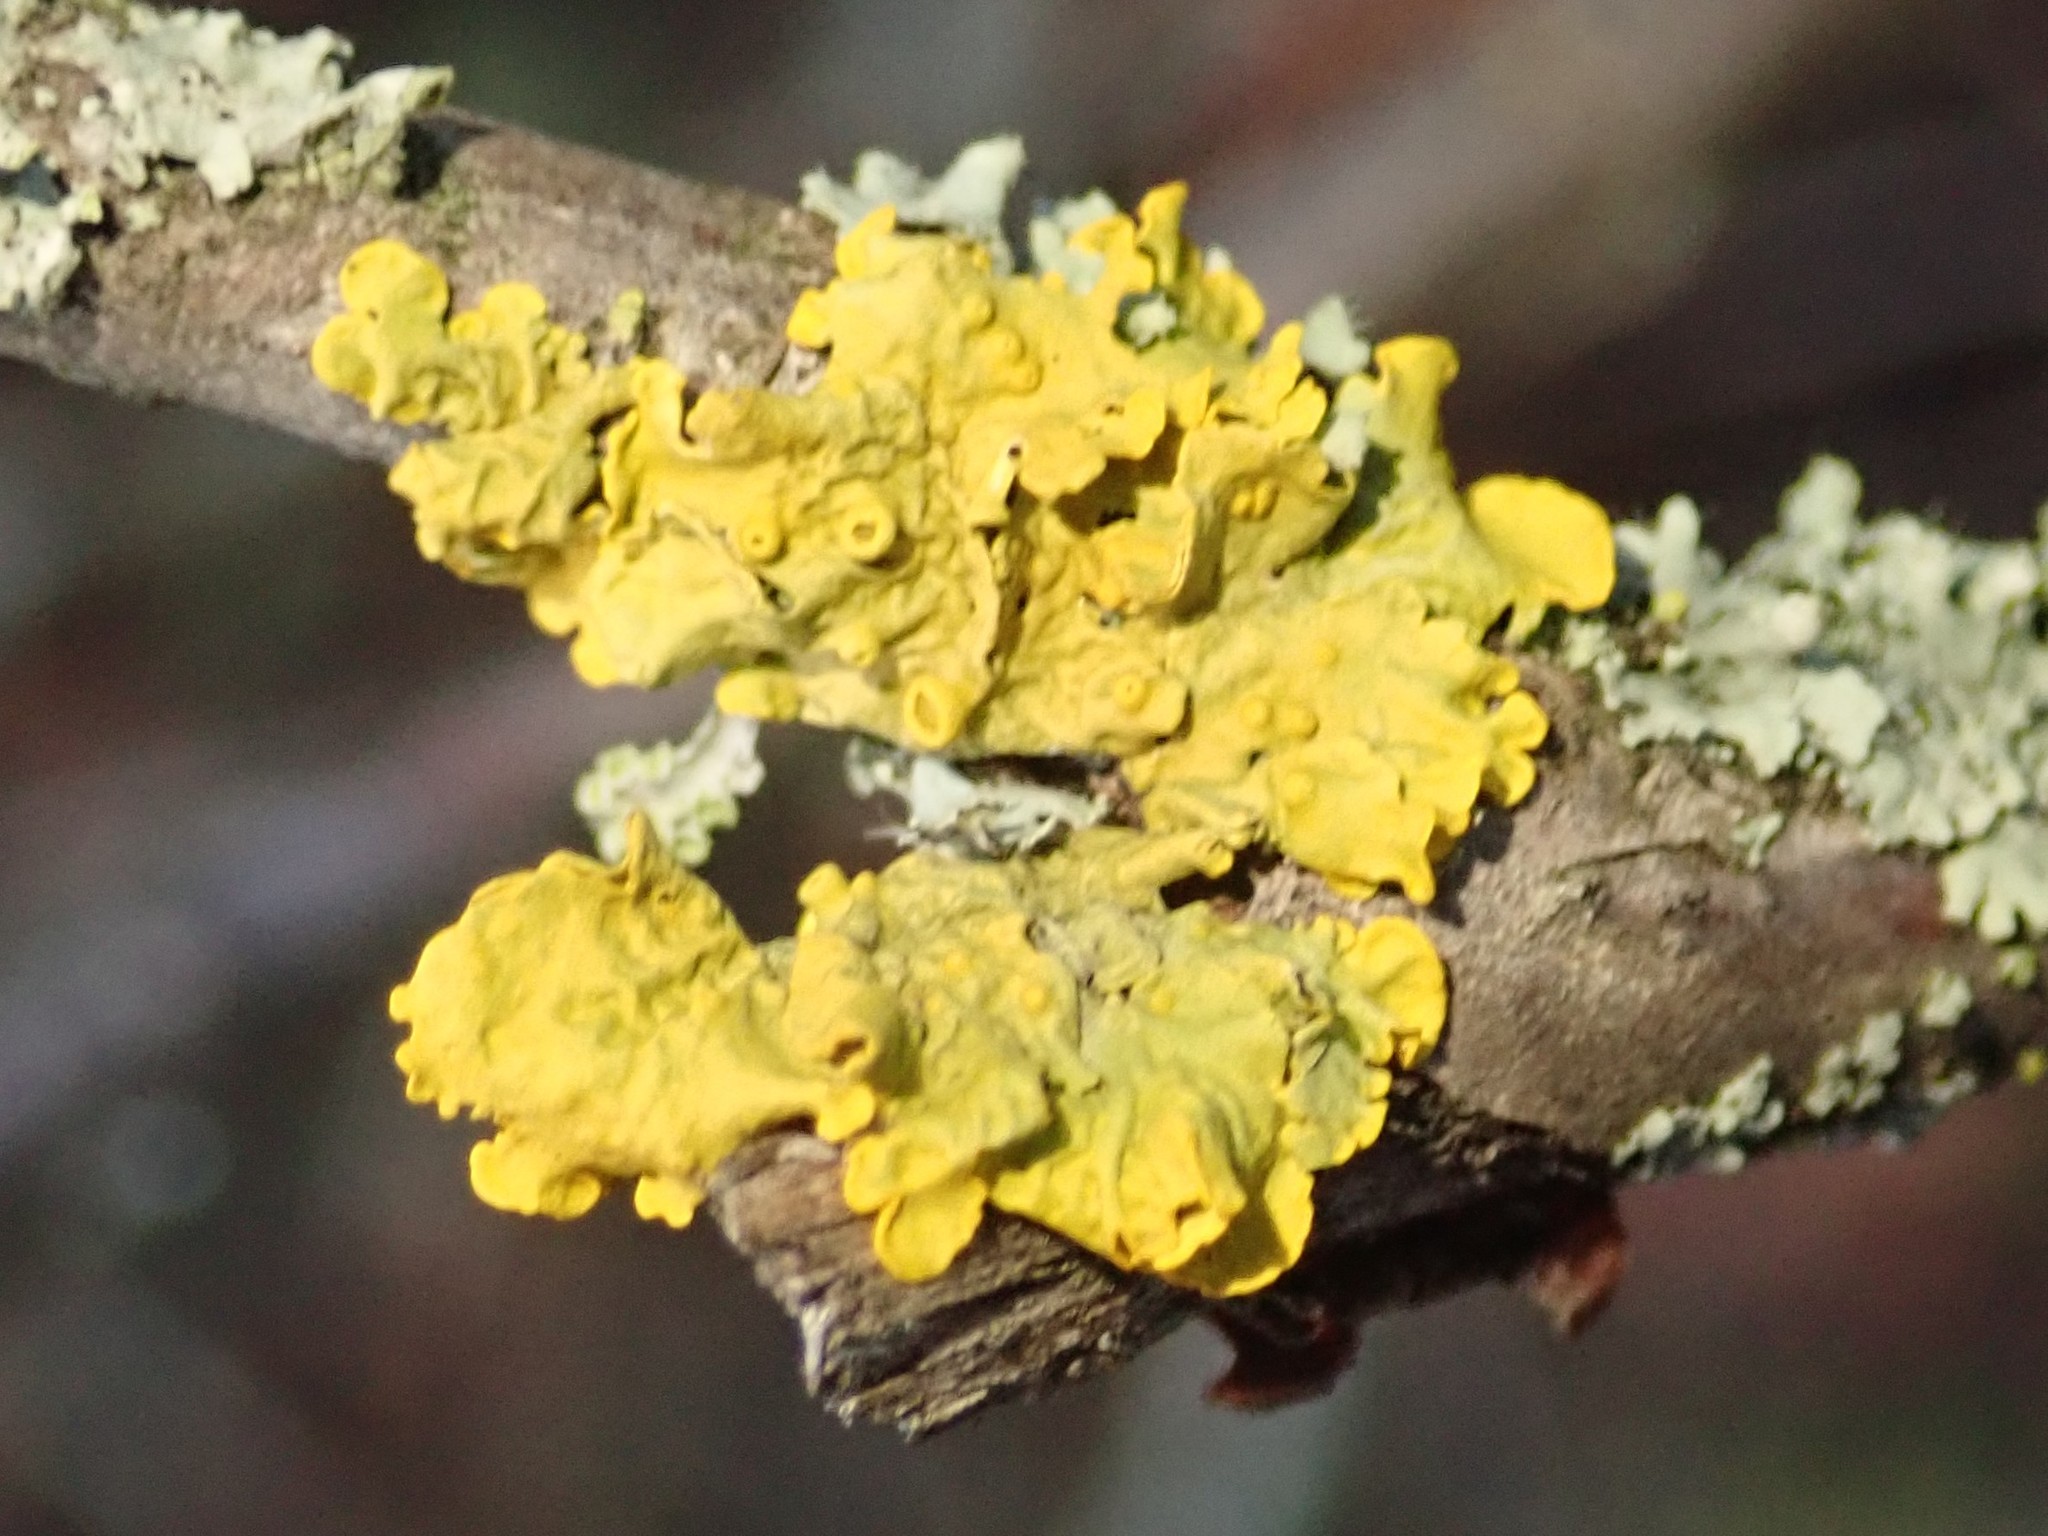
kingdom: Fungi
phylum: Ascomycota
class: Lecanoromycetes
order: Teloschistales
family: Teloschistaceae
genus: Xanthoria
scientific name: Xanthoria parietina
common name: Common orange lichen
